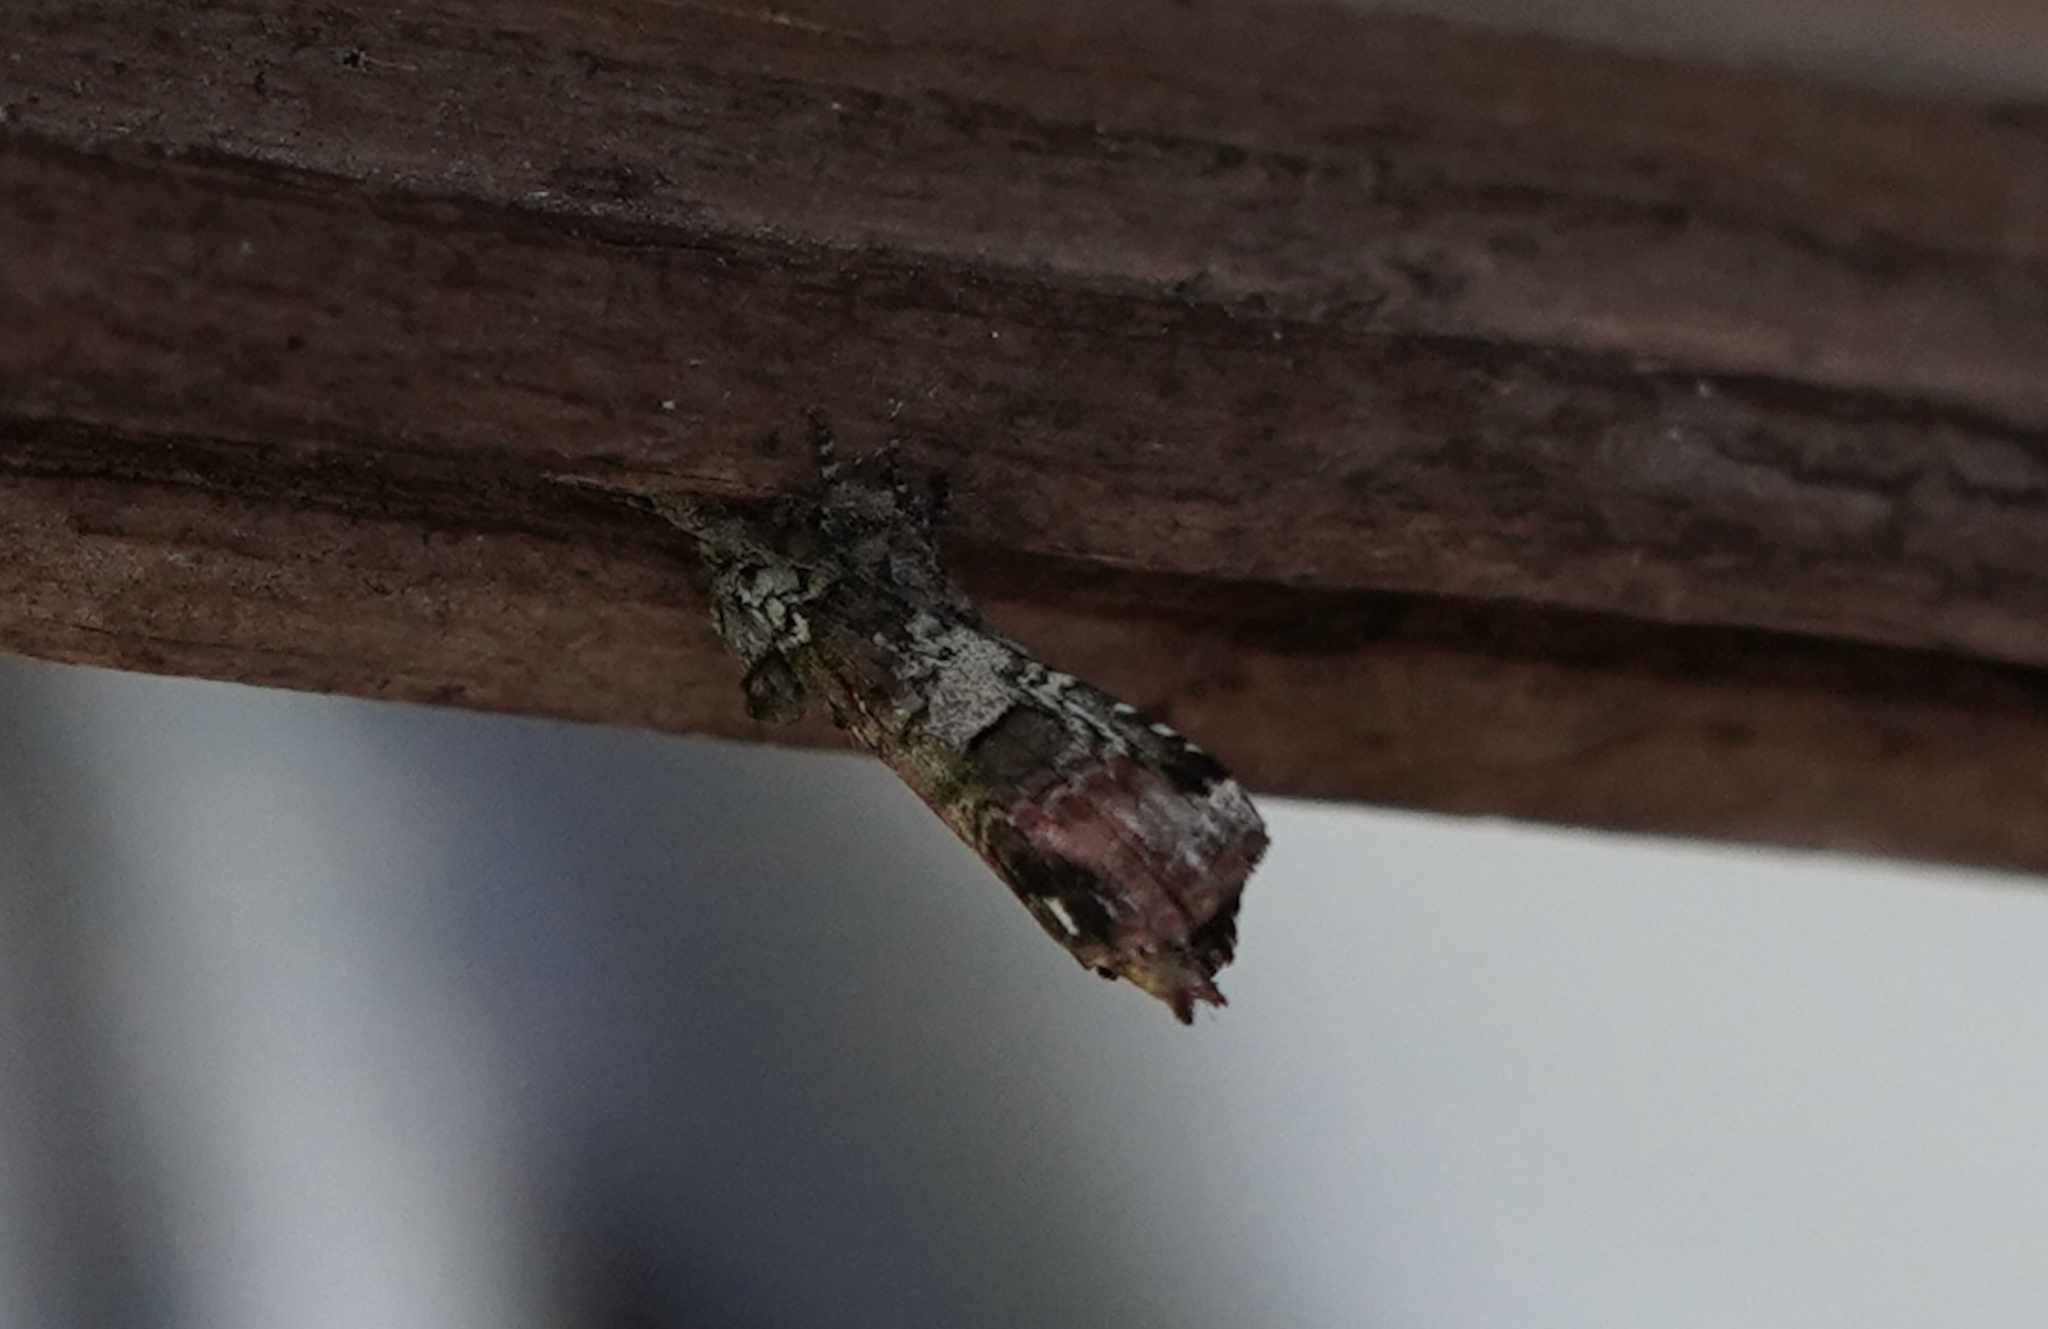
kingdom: Animalia
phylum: Arthropoda
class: Insecta
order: Lepidoptera
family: Notodontidae
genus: Schizura
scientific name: Schizura
